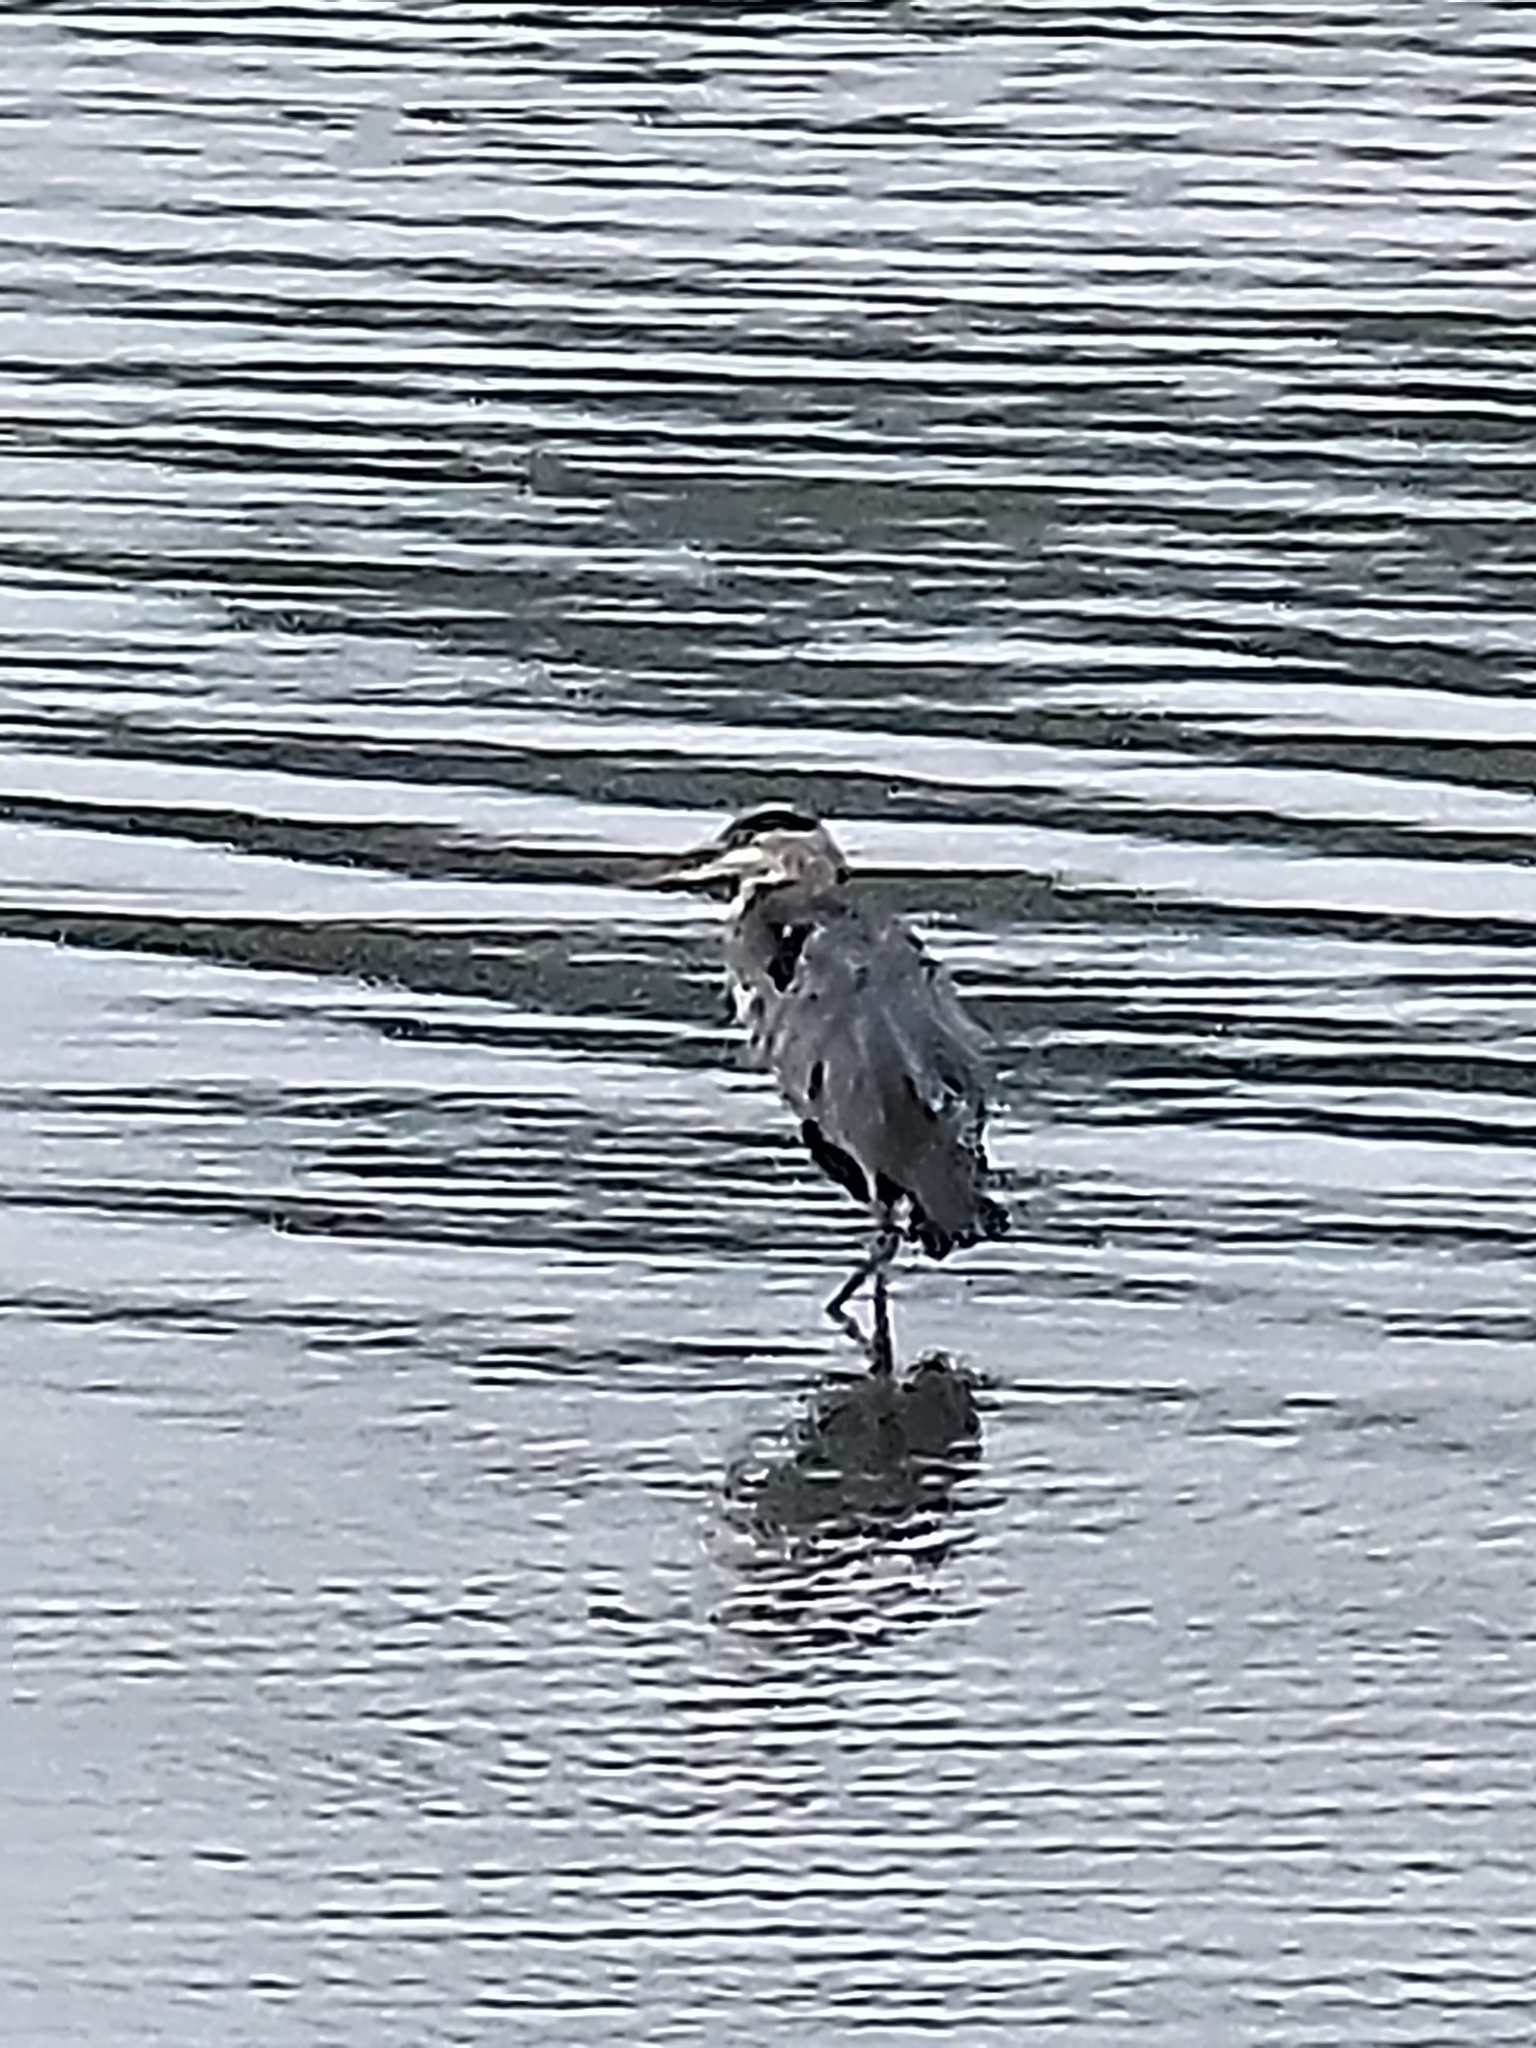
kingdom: Animalia
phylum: Chordata
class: Aves
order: Pelecaniformes
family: Ardeidae
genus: Ardea
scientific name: Ardea herodias
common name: Great blue heron
